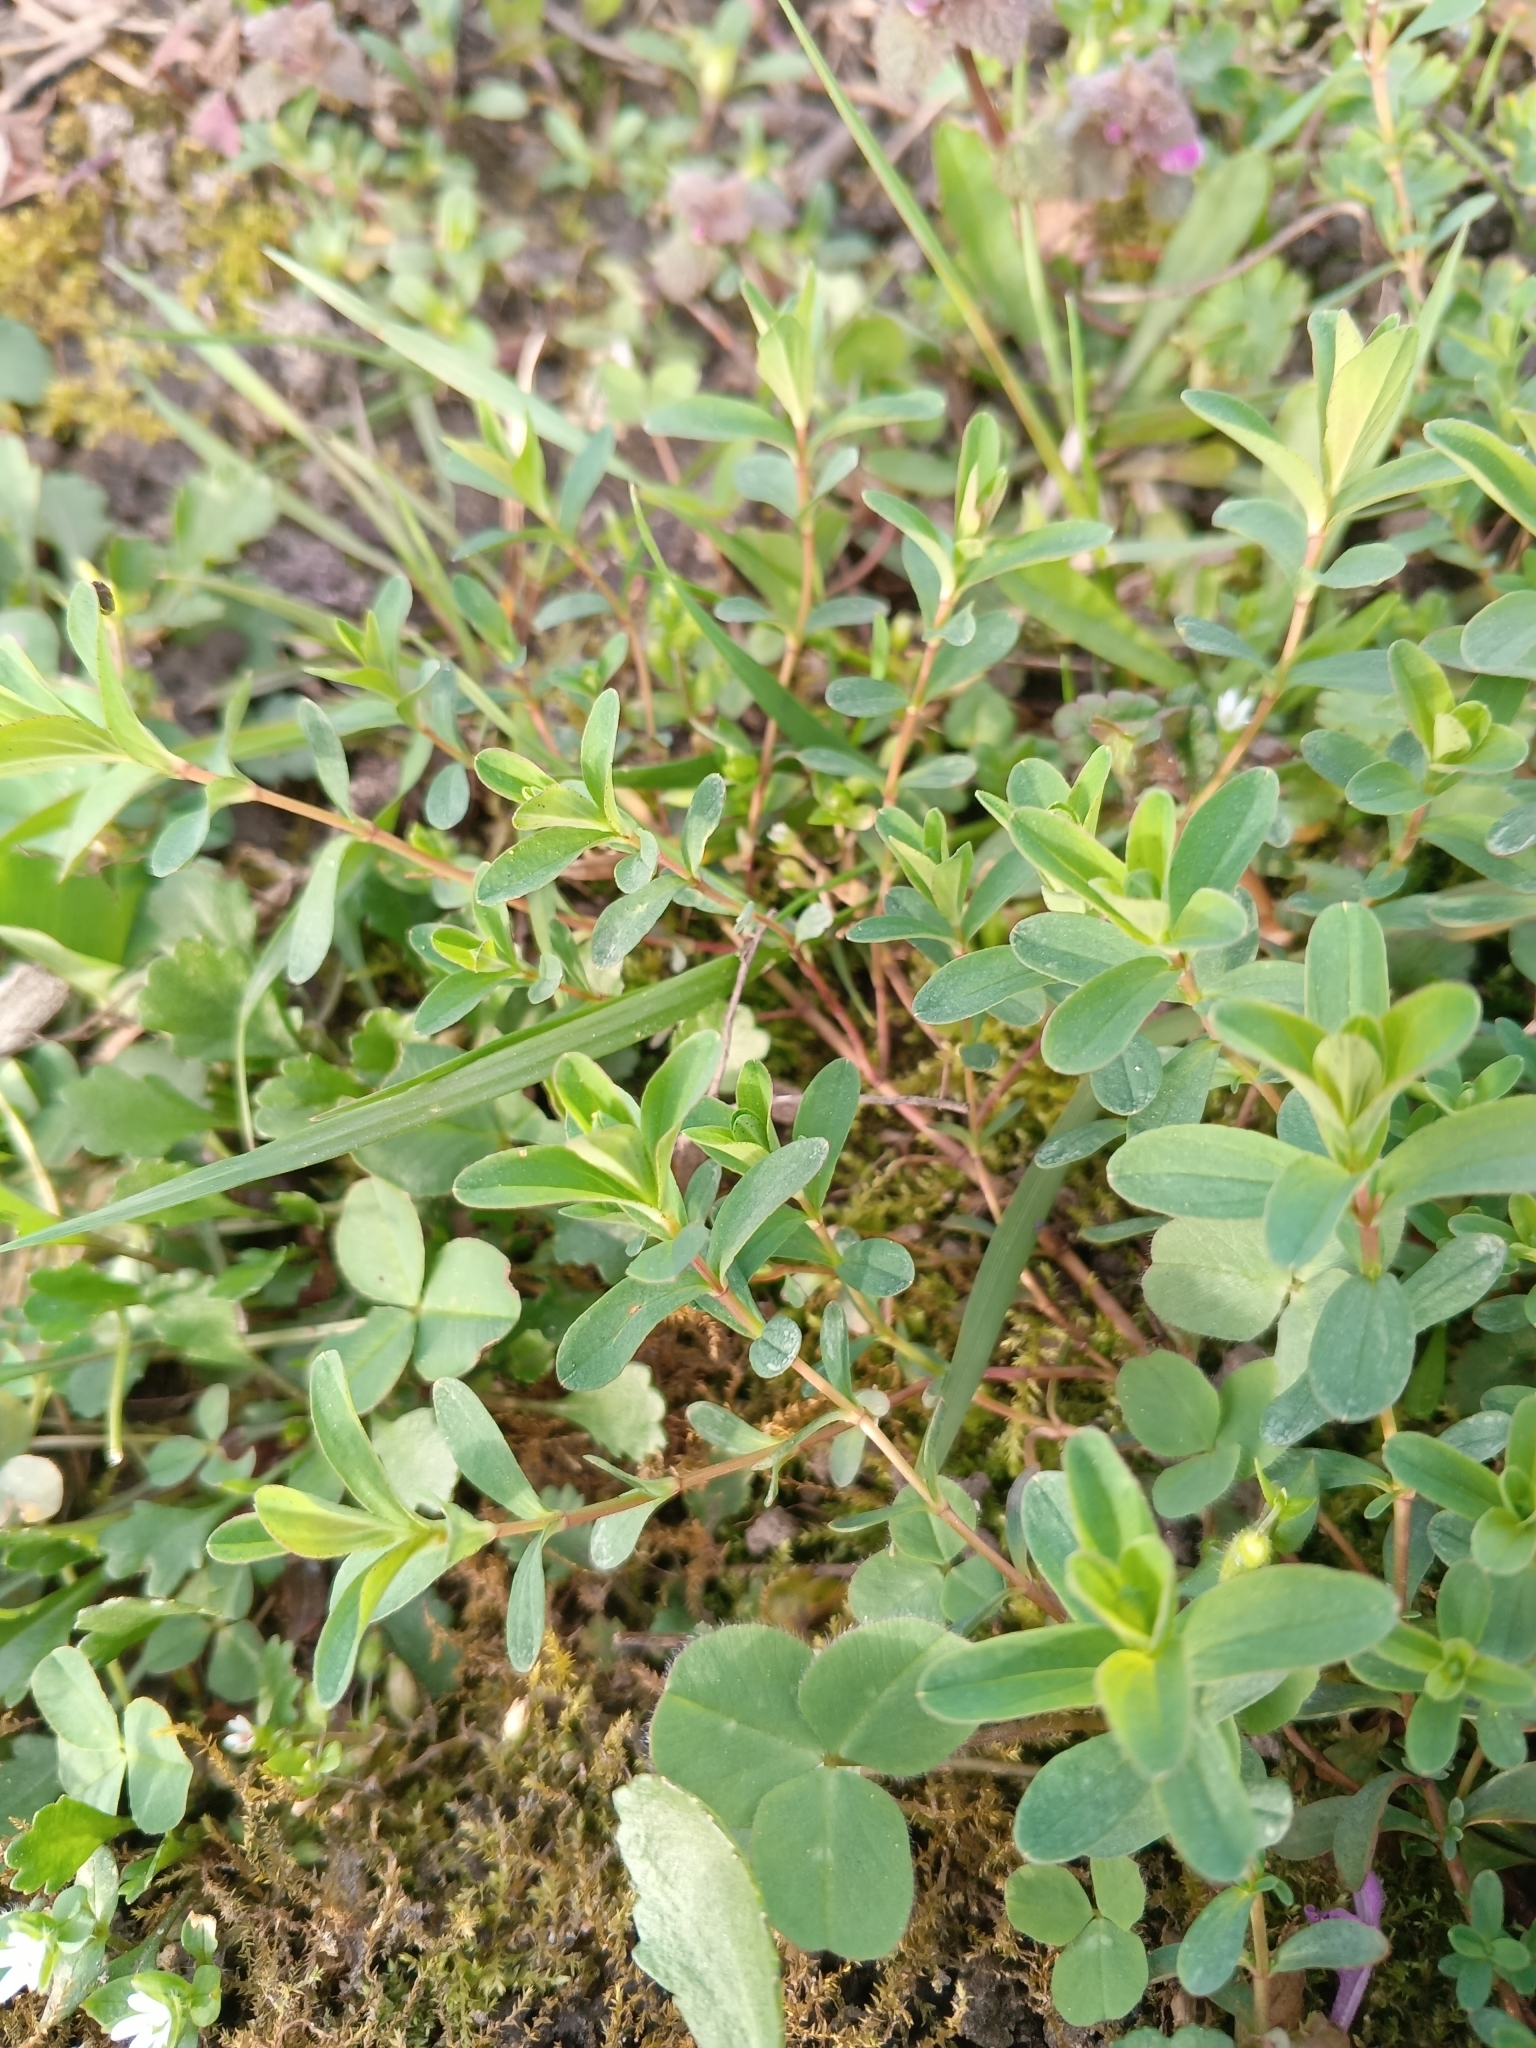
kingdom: Plantae
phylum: Tracheophyta
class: Magnoliopsida
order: Malpighiales
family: Hypericaceae
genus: Hypericum
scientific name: Hypericum perforatum
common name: Common st. johnswort
